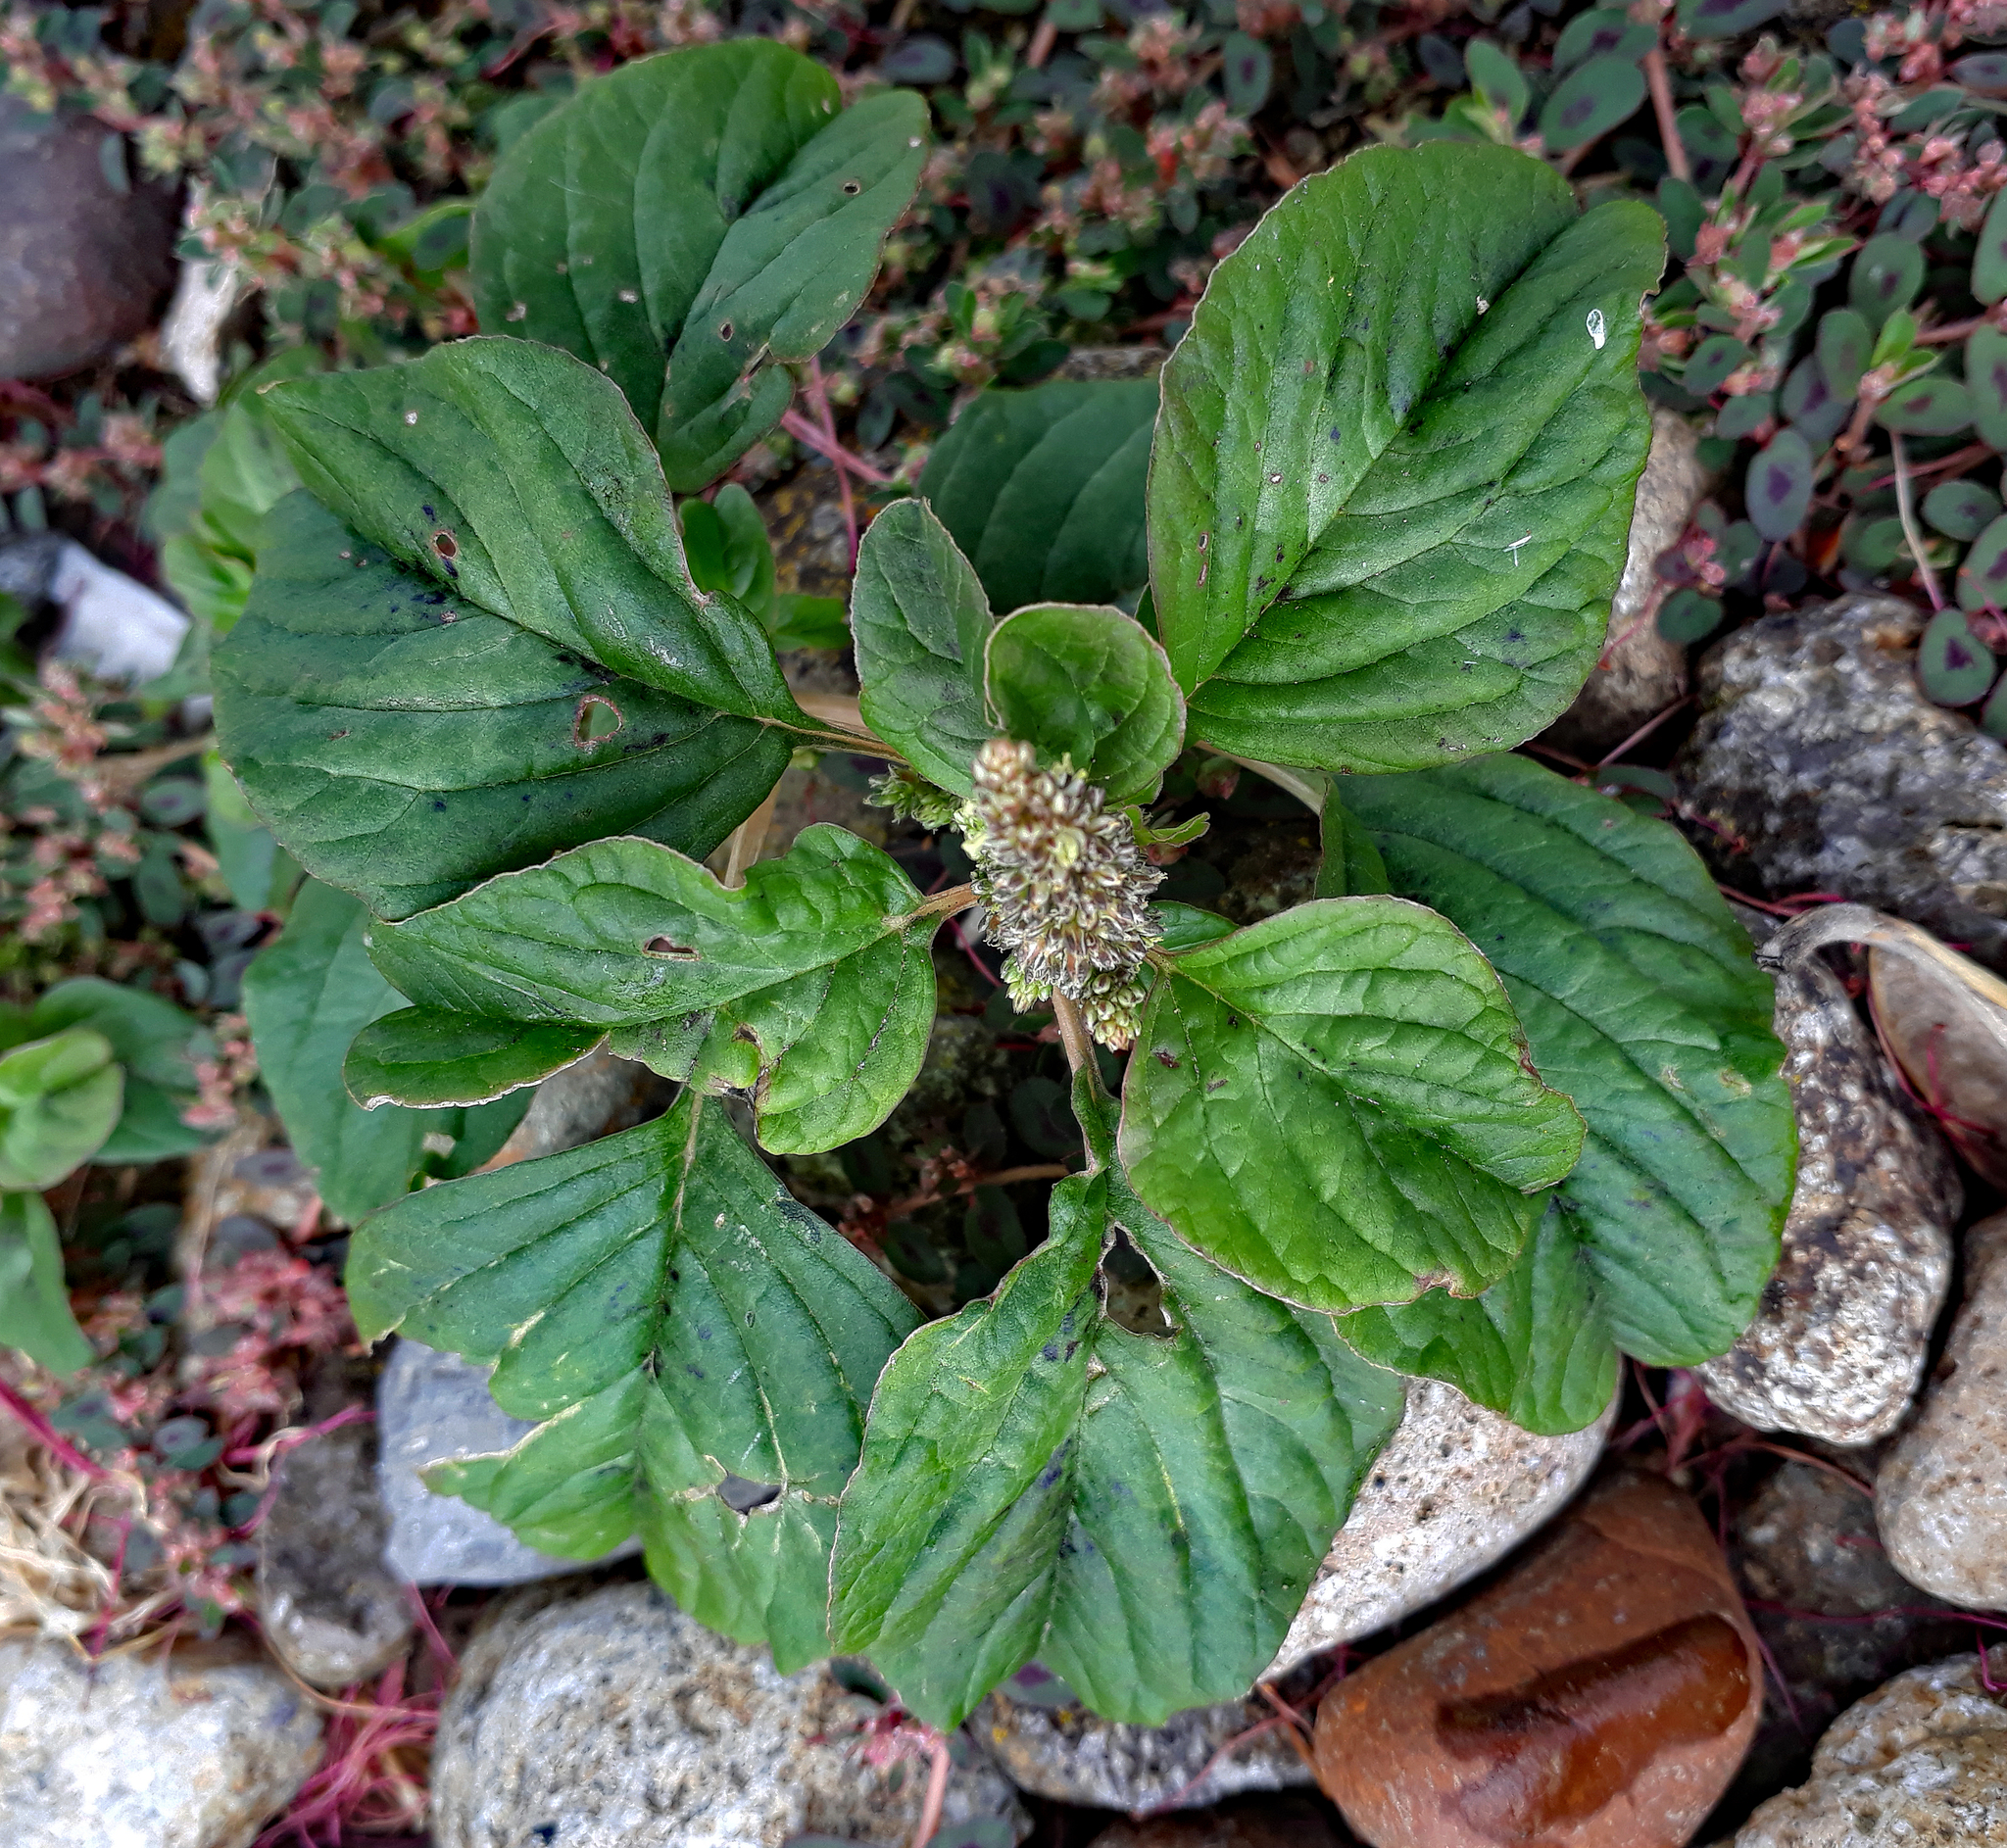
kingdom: Plantae
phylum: Tracheophyta
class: Magnoliopsida
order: Caryophyllales
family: Amaranthaceae
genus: Amaranthus
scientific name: Amaranthus blitum
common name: Purple amaranth
